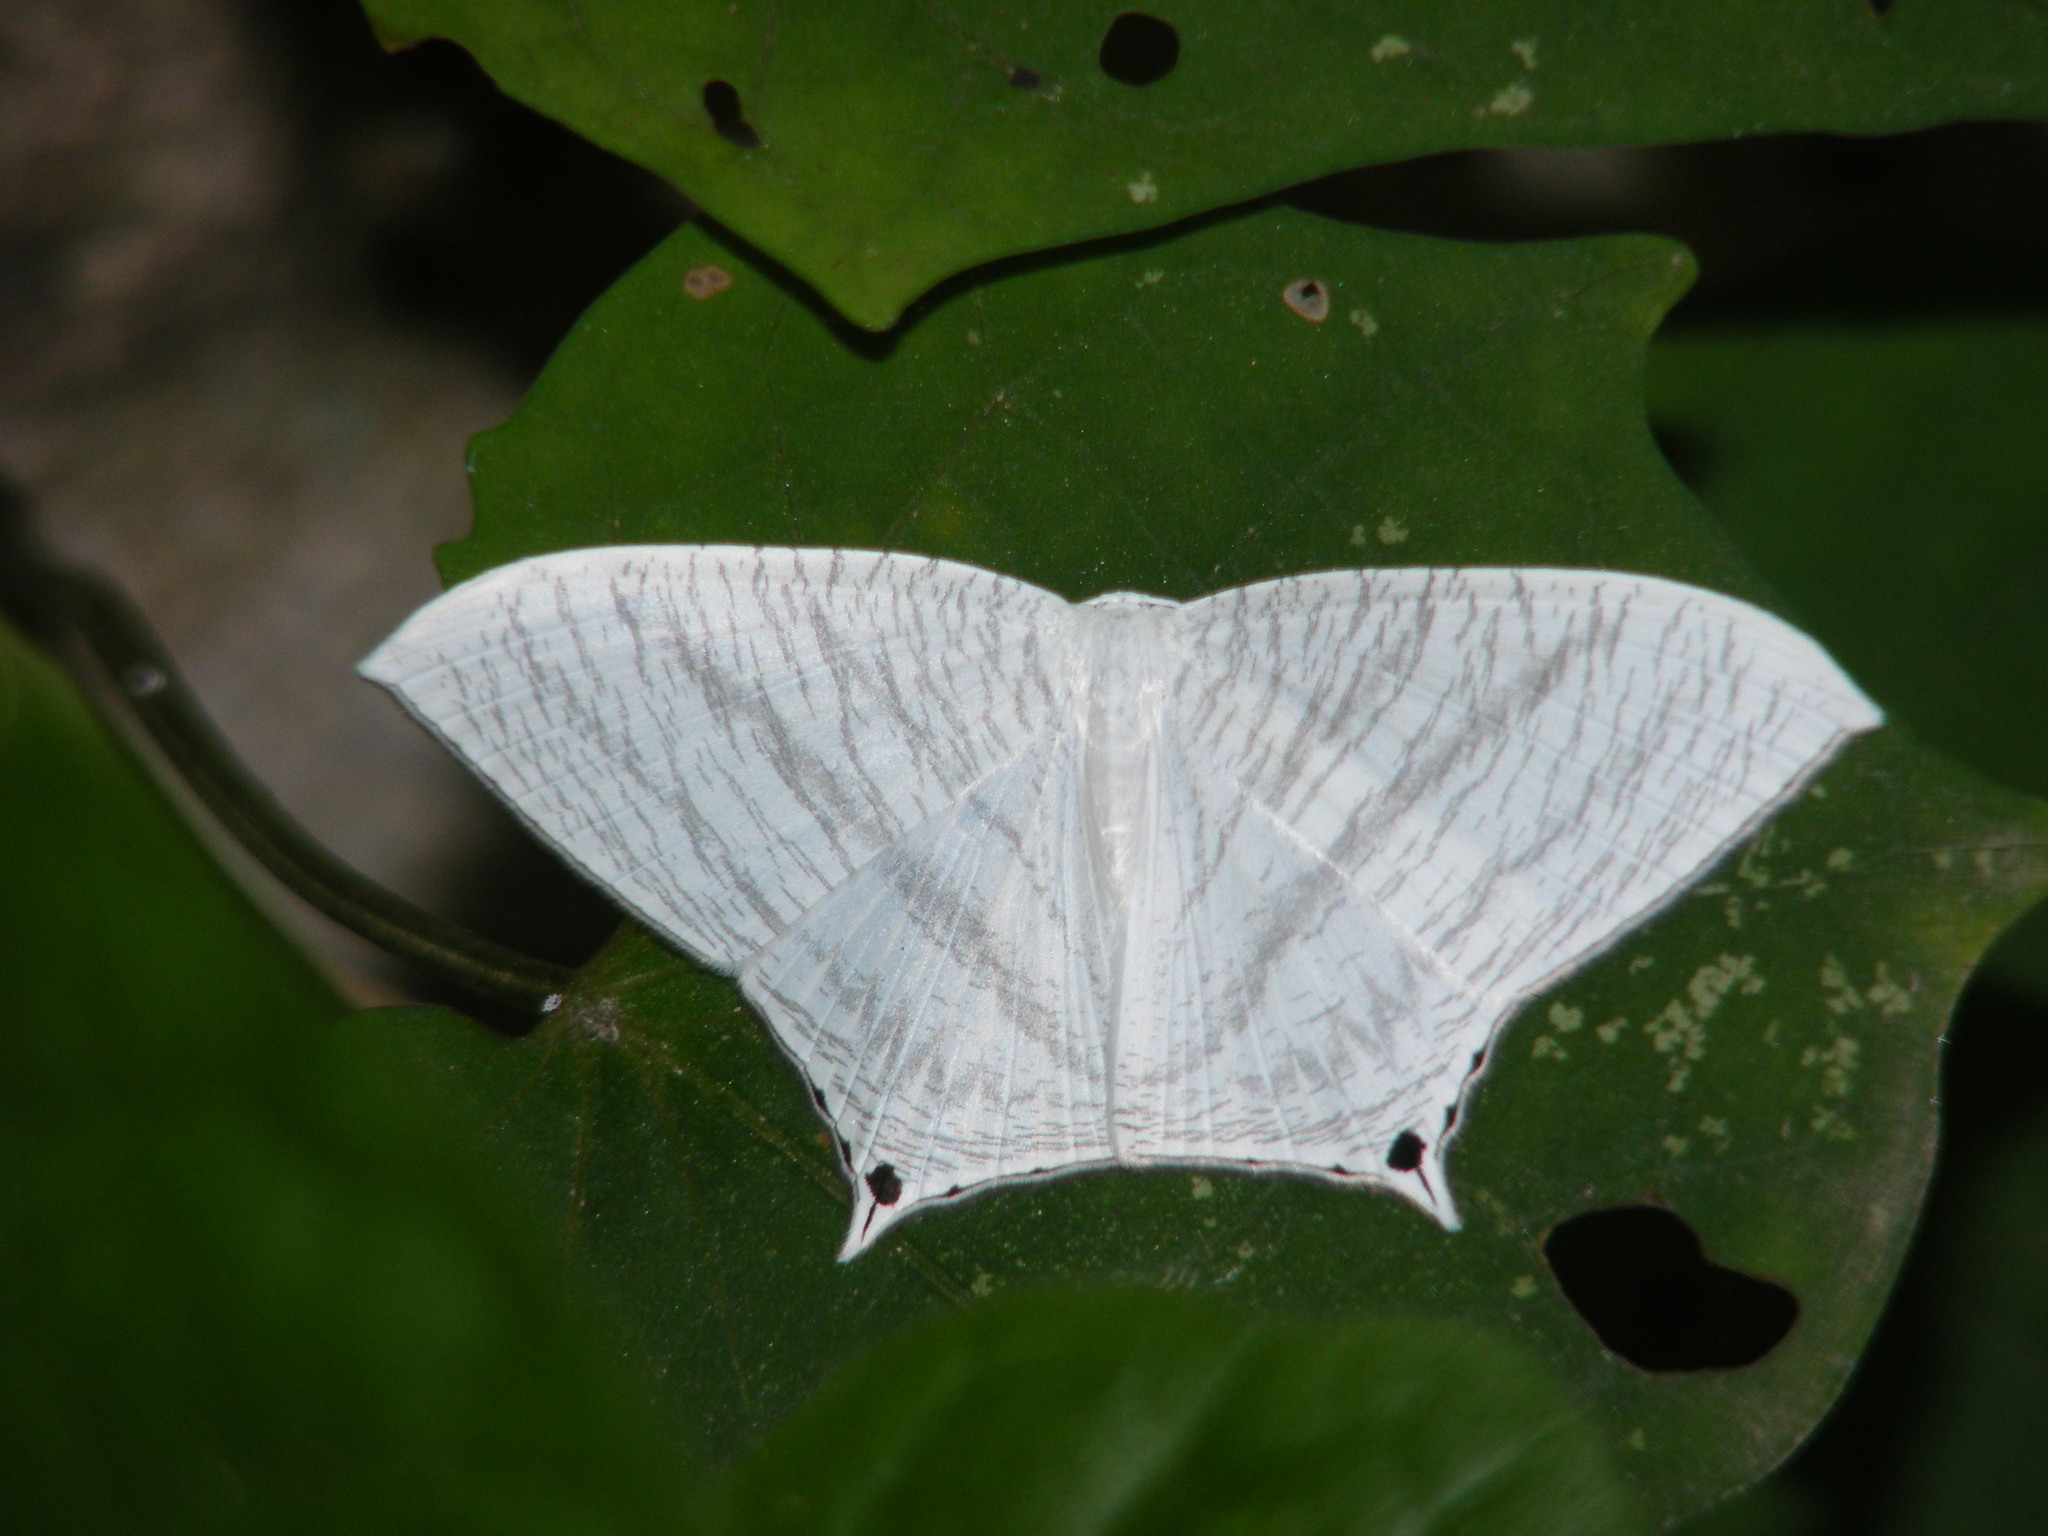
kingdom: Animalia
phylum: Arthropoda
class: Insecta
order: Lepidoptera
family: Uraniidae
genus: Micronia
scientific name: Micronia aculeata
